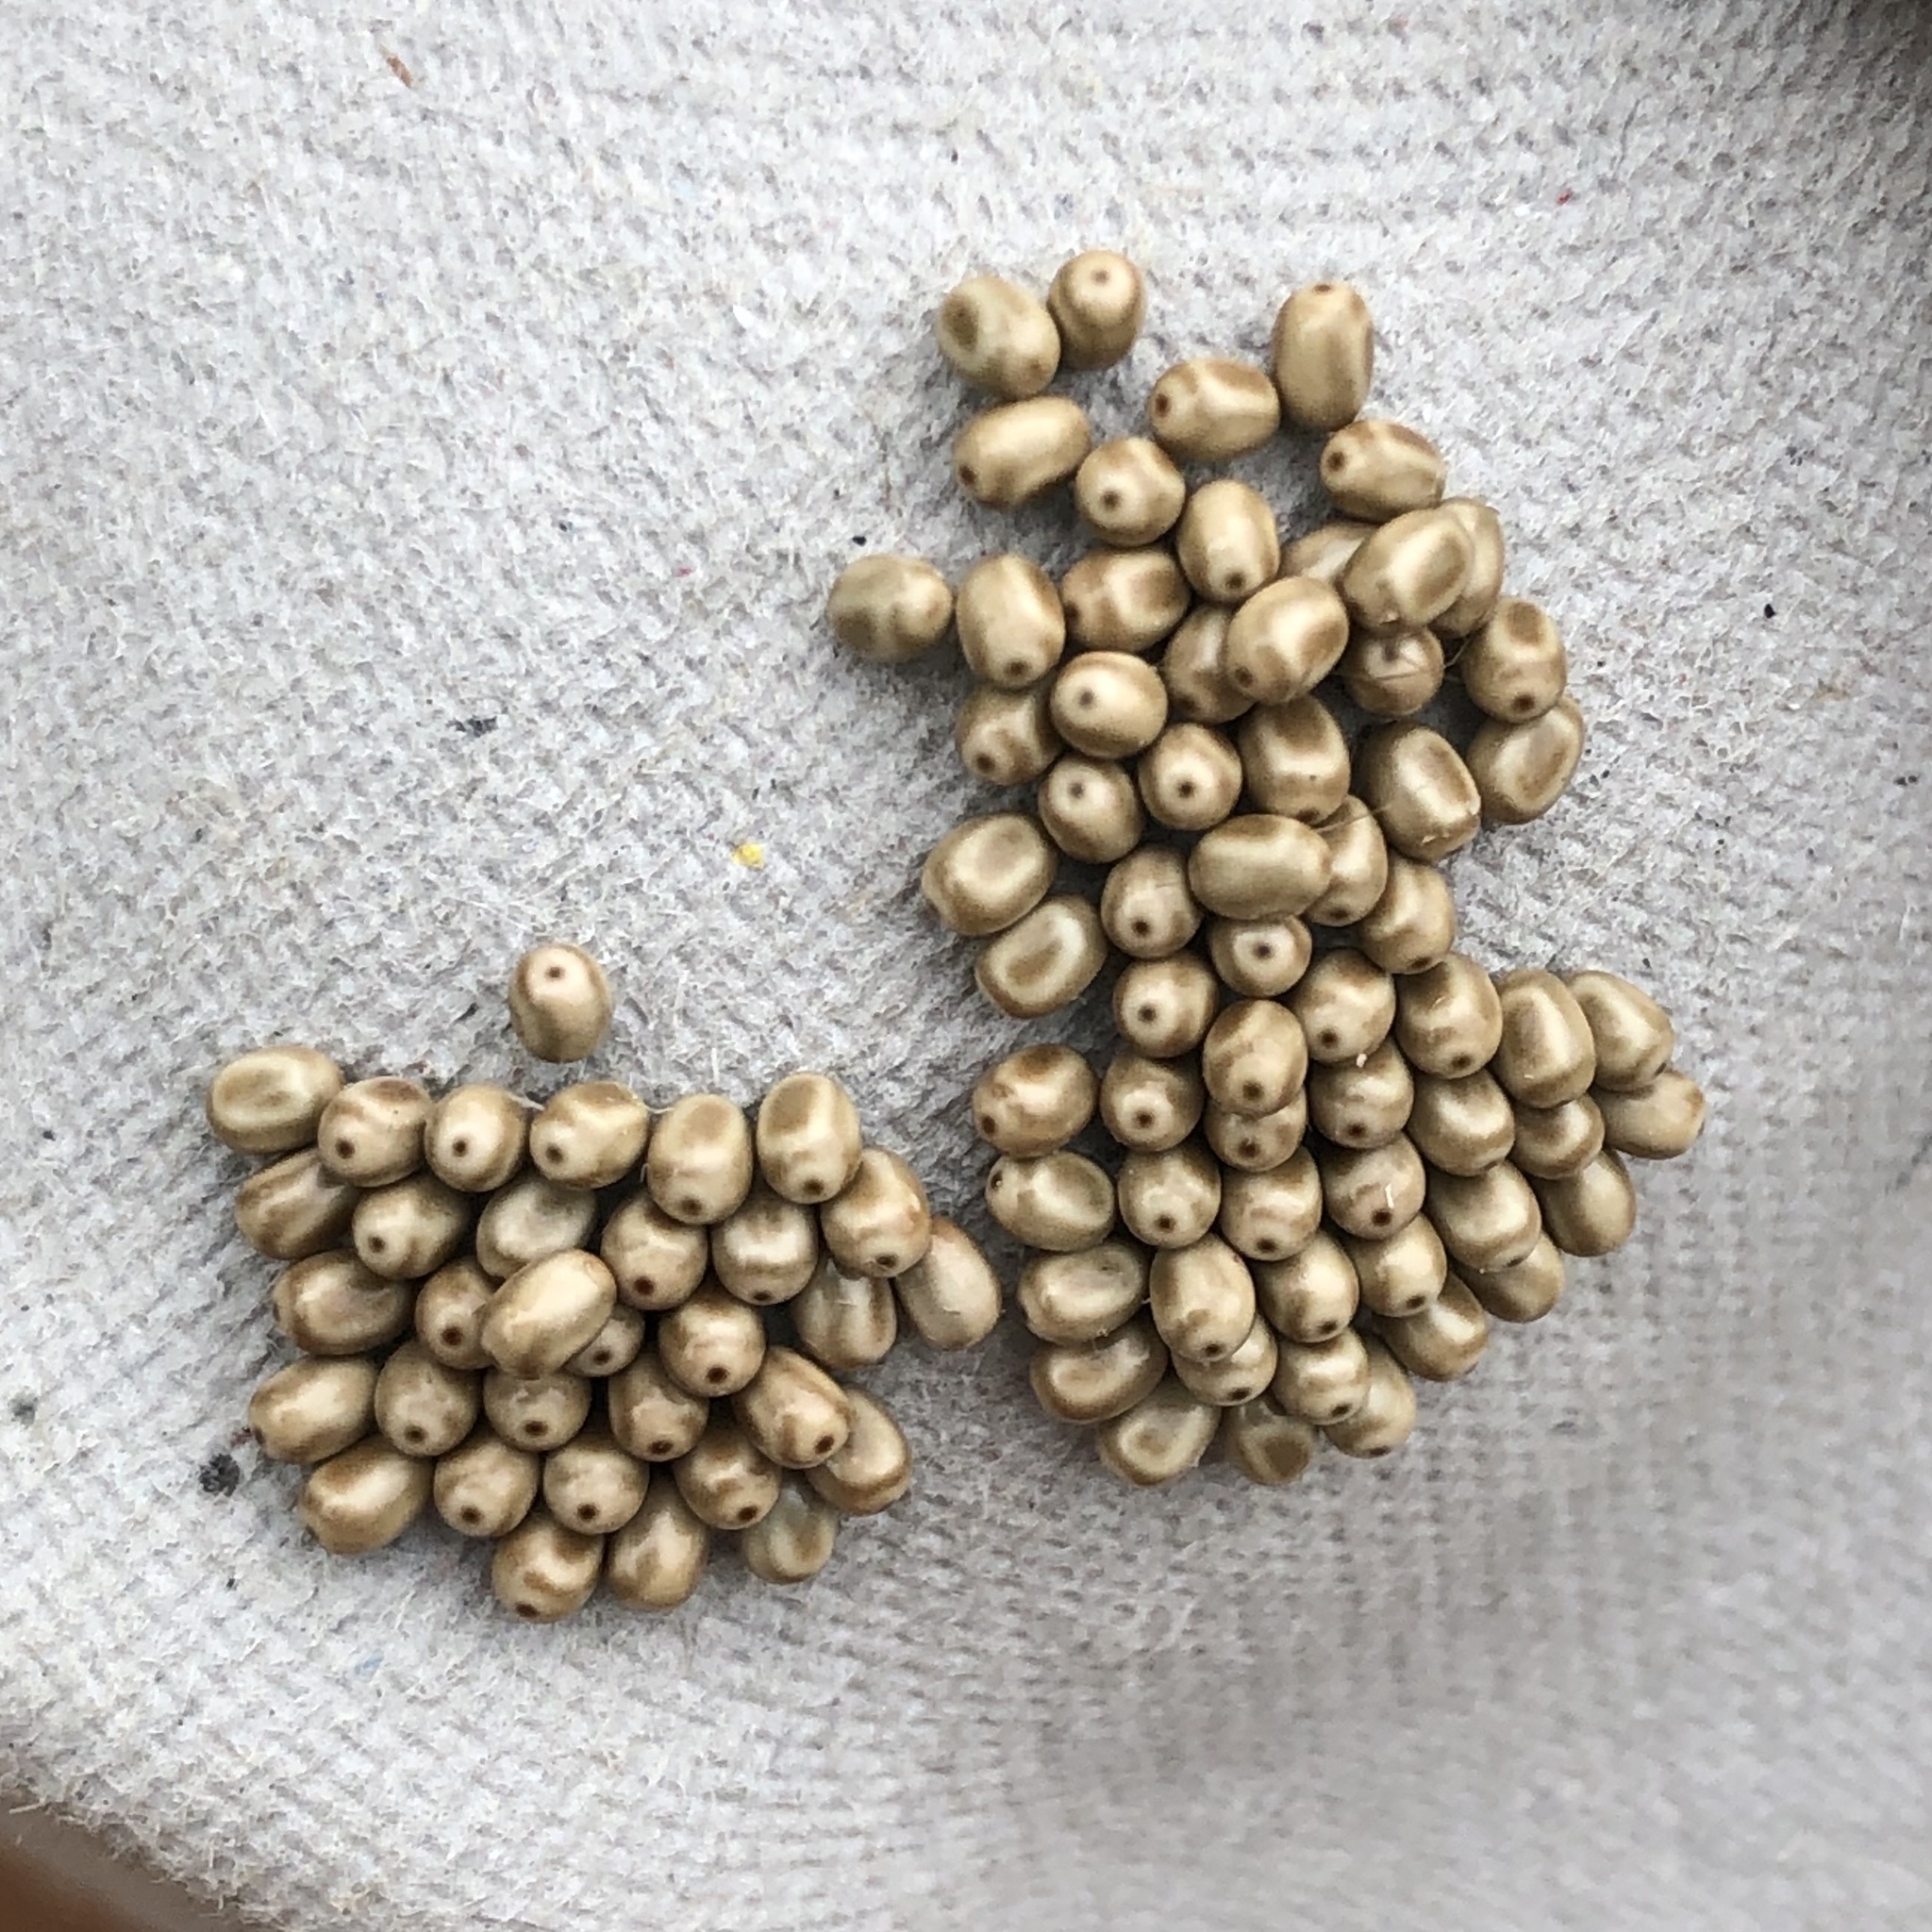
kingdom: Animalia
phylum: Arthropoda
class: Insecta
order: Lepidoptera
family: Lasiocampidae
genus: Macrothylacia
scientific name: Macrothylacia rubi
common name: Fox moth
